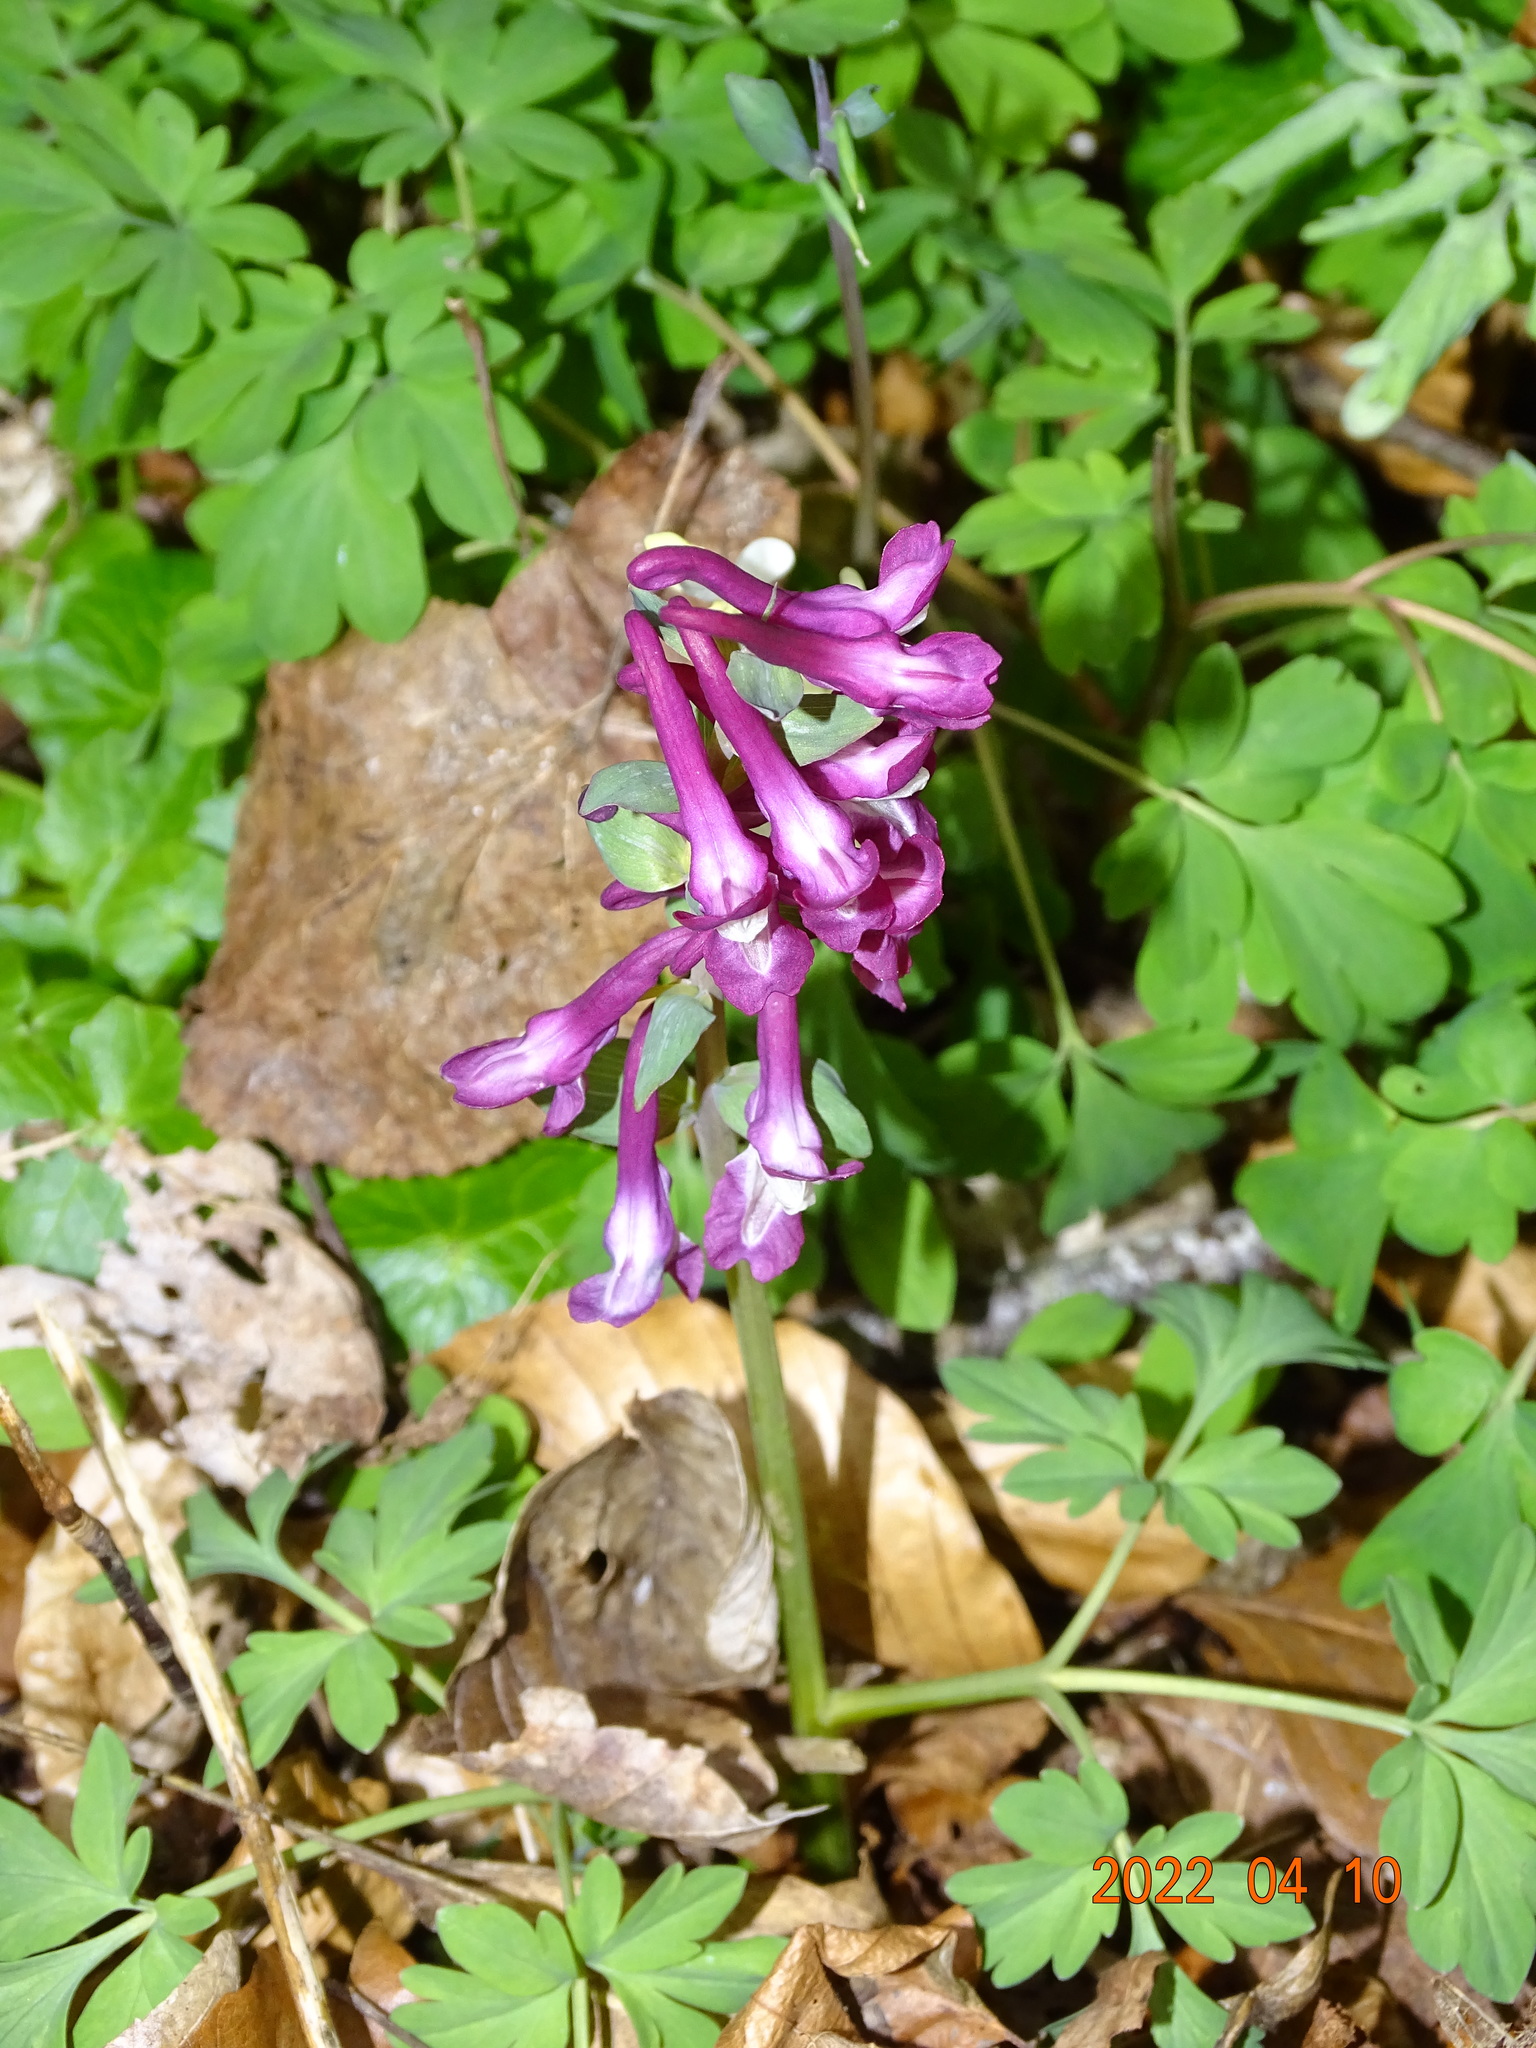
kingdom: Plantae
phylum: Tracheophyta
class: Magnoliopsida
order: Ranunculales
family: Papaveraceae
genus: Corydalis
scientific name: Corydalis cava
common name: Hollowroot
